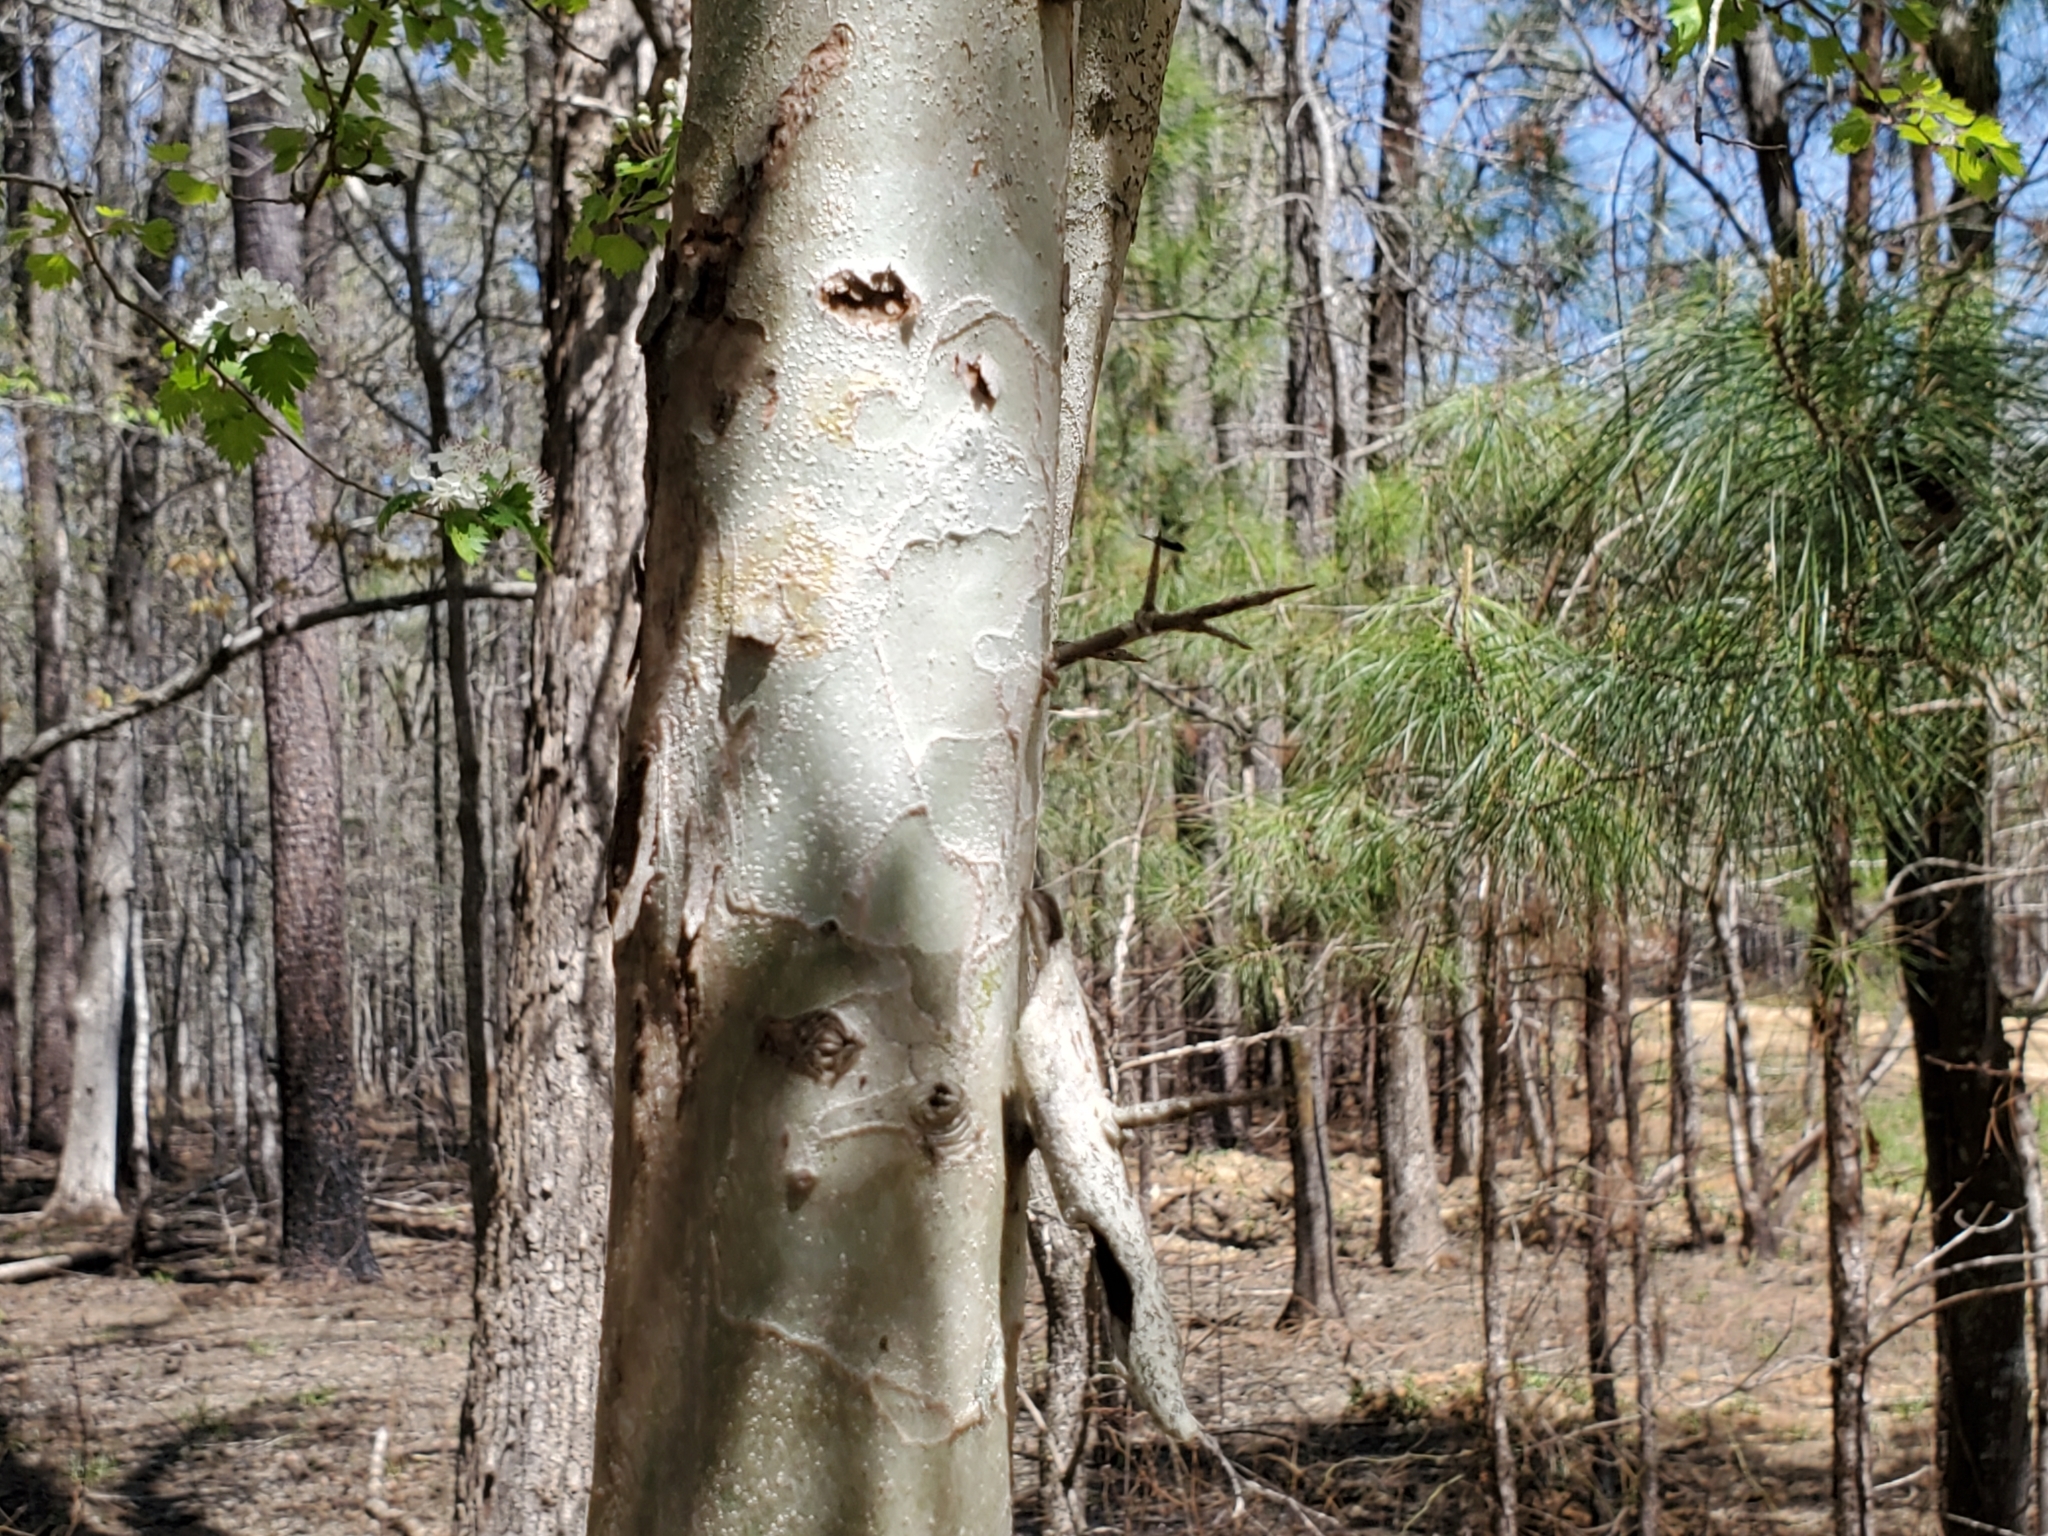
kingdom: Plantae
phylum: Tracheophyta
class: Magnoliopsida
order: Rosales
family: Rosaceae
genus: Crataegus
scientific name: Crataegus marshallii
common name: Parsley-hawthorn
